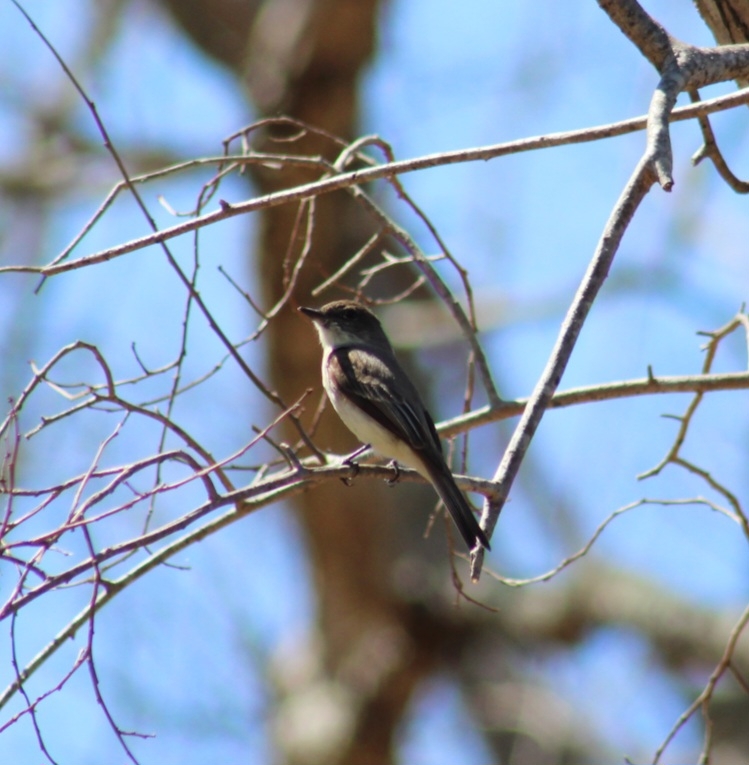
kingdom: Animalia
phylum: Chordata
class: Aves
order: Passeriformes
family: Tyrannidae
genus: Sayornis
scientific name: Sayornis phoebe
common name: Eastern phoebe
